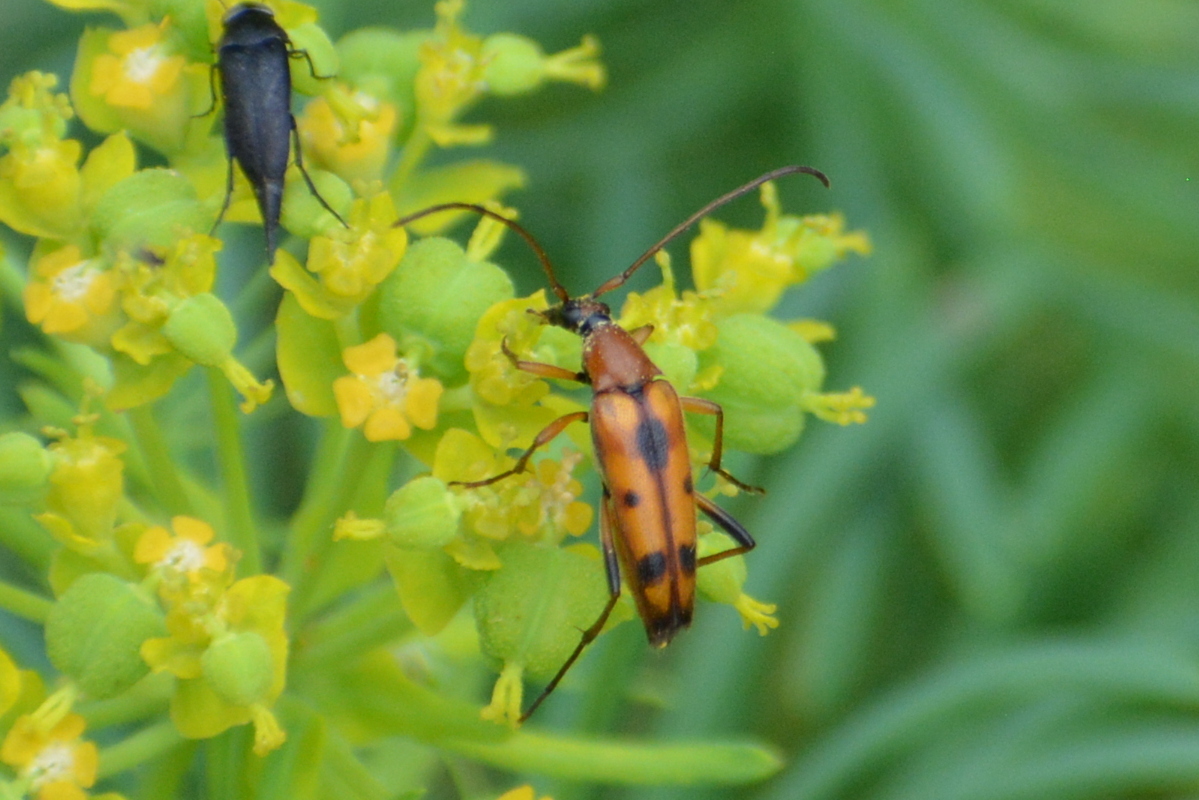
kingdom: Animalia
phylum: Arthropoda
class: Insecta
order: Coleoptera
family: Cerambycidae
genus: Stenurella
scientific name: Stenurella septempunctata
